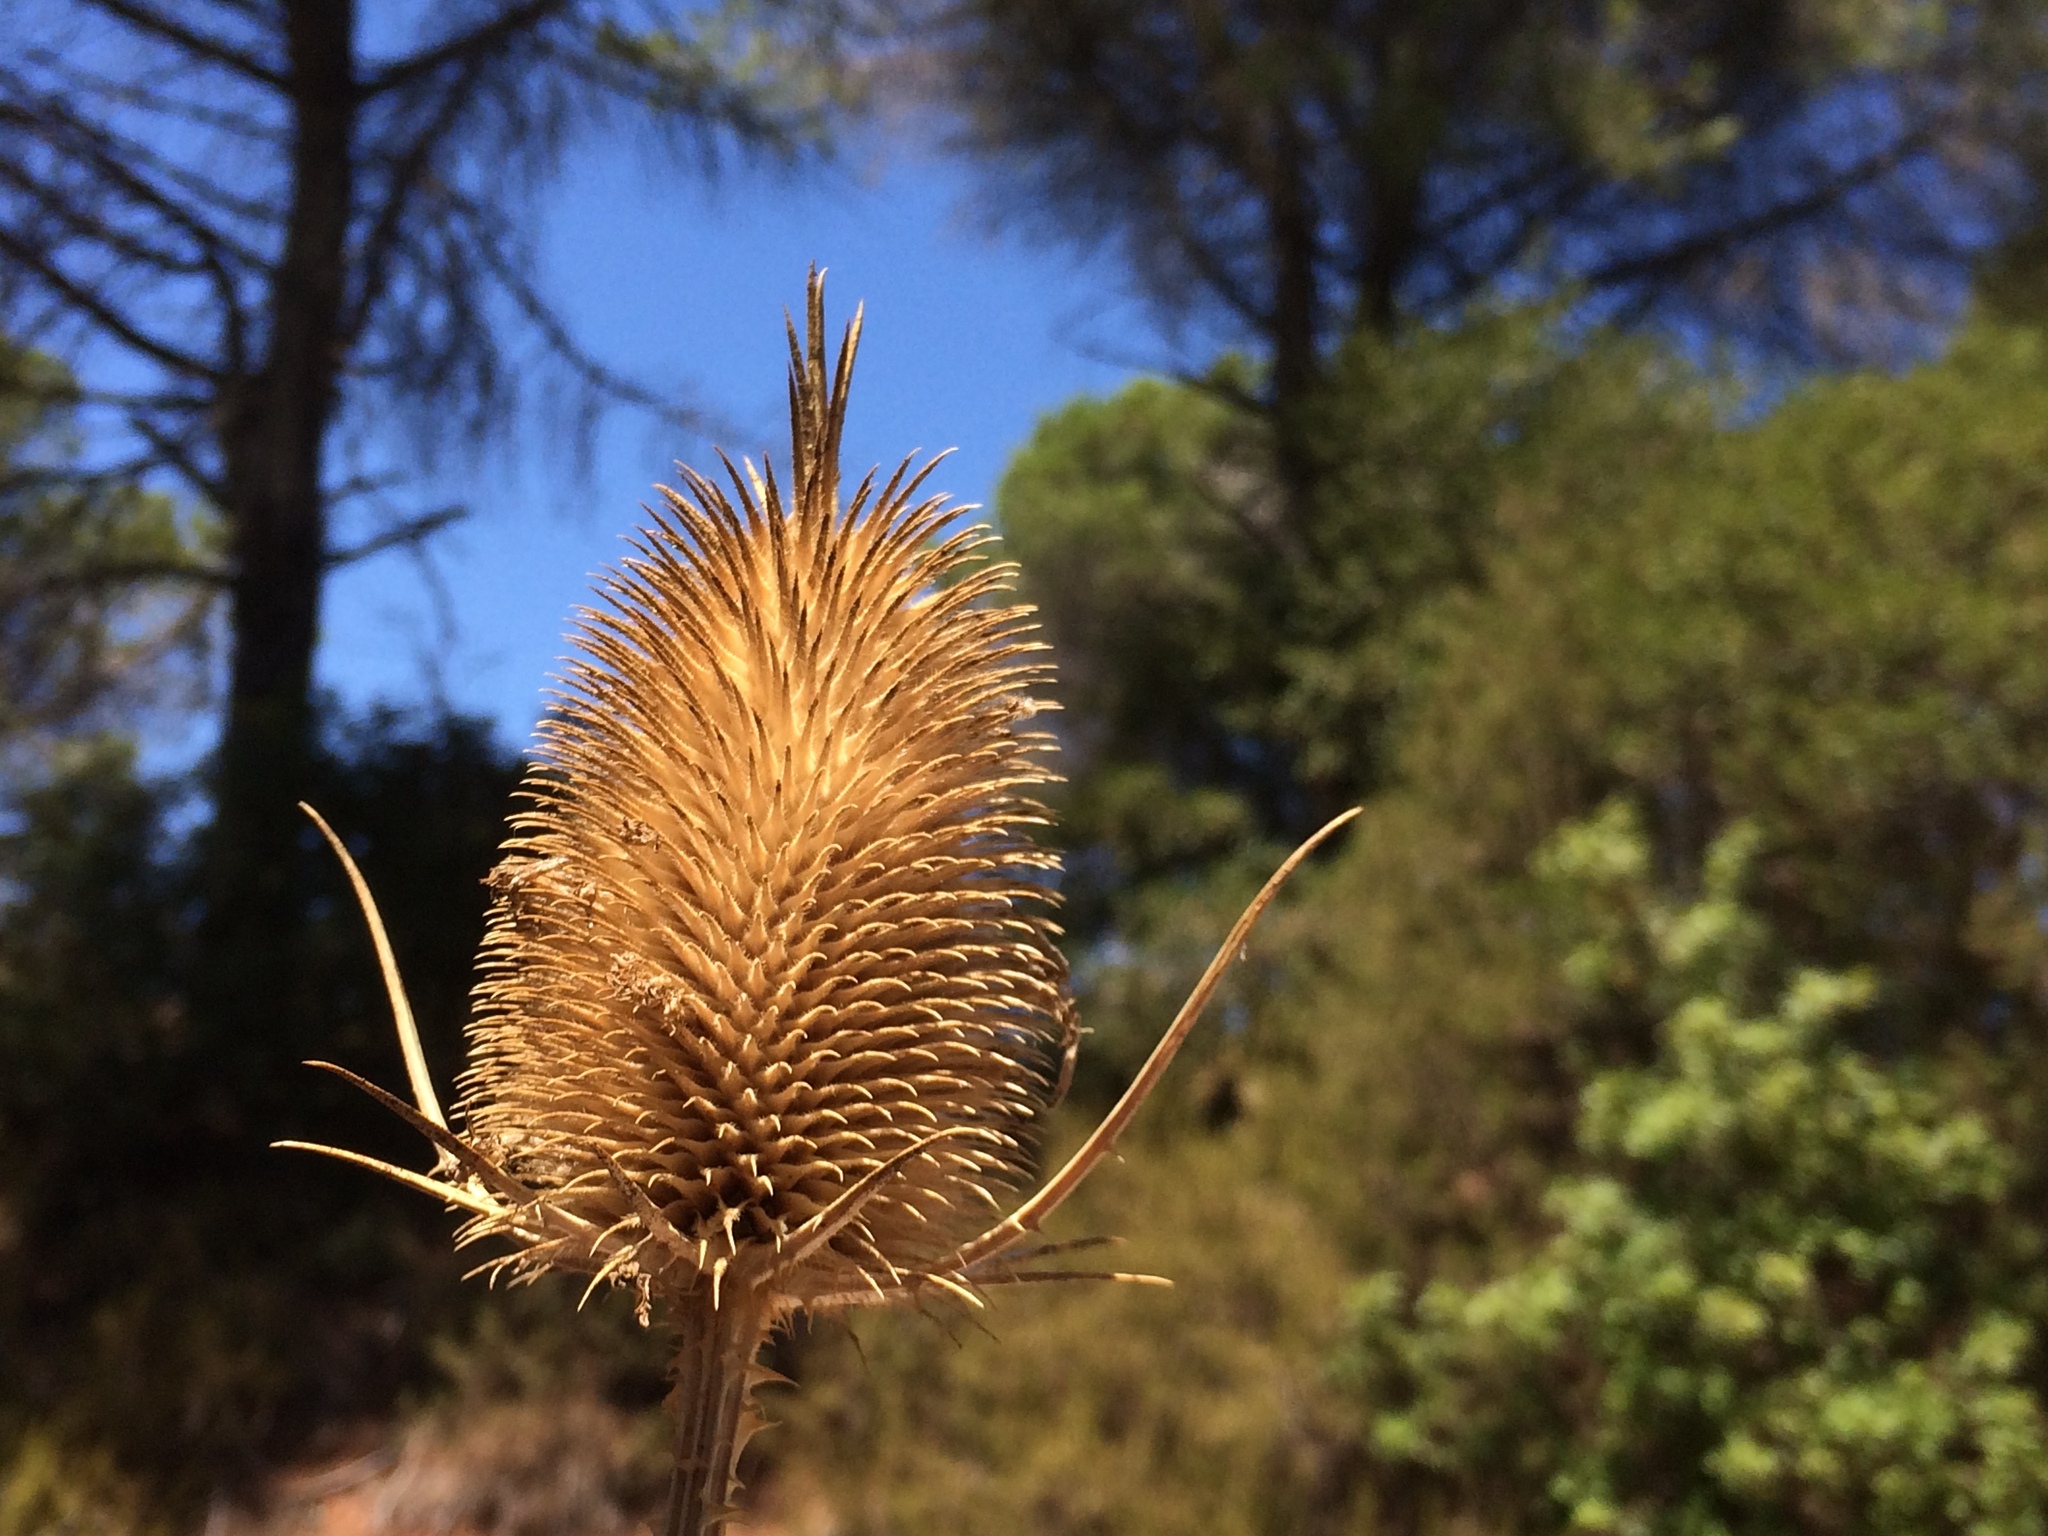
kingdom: Plantae
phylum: Tracheophyta
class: Magnoliopsida
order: Dipsacales
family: Caprifoliaceae
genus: Dipsacus
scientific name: Dipsacus comosus
